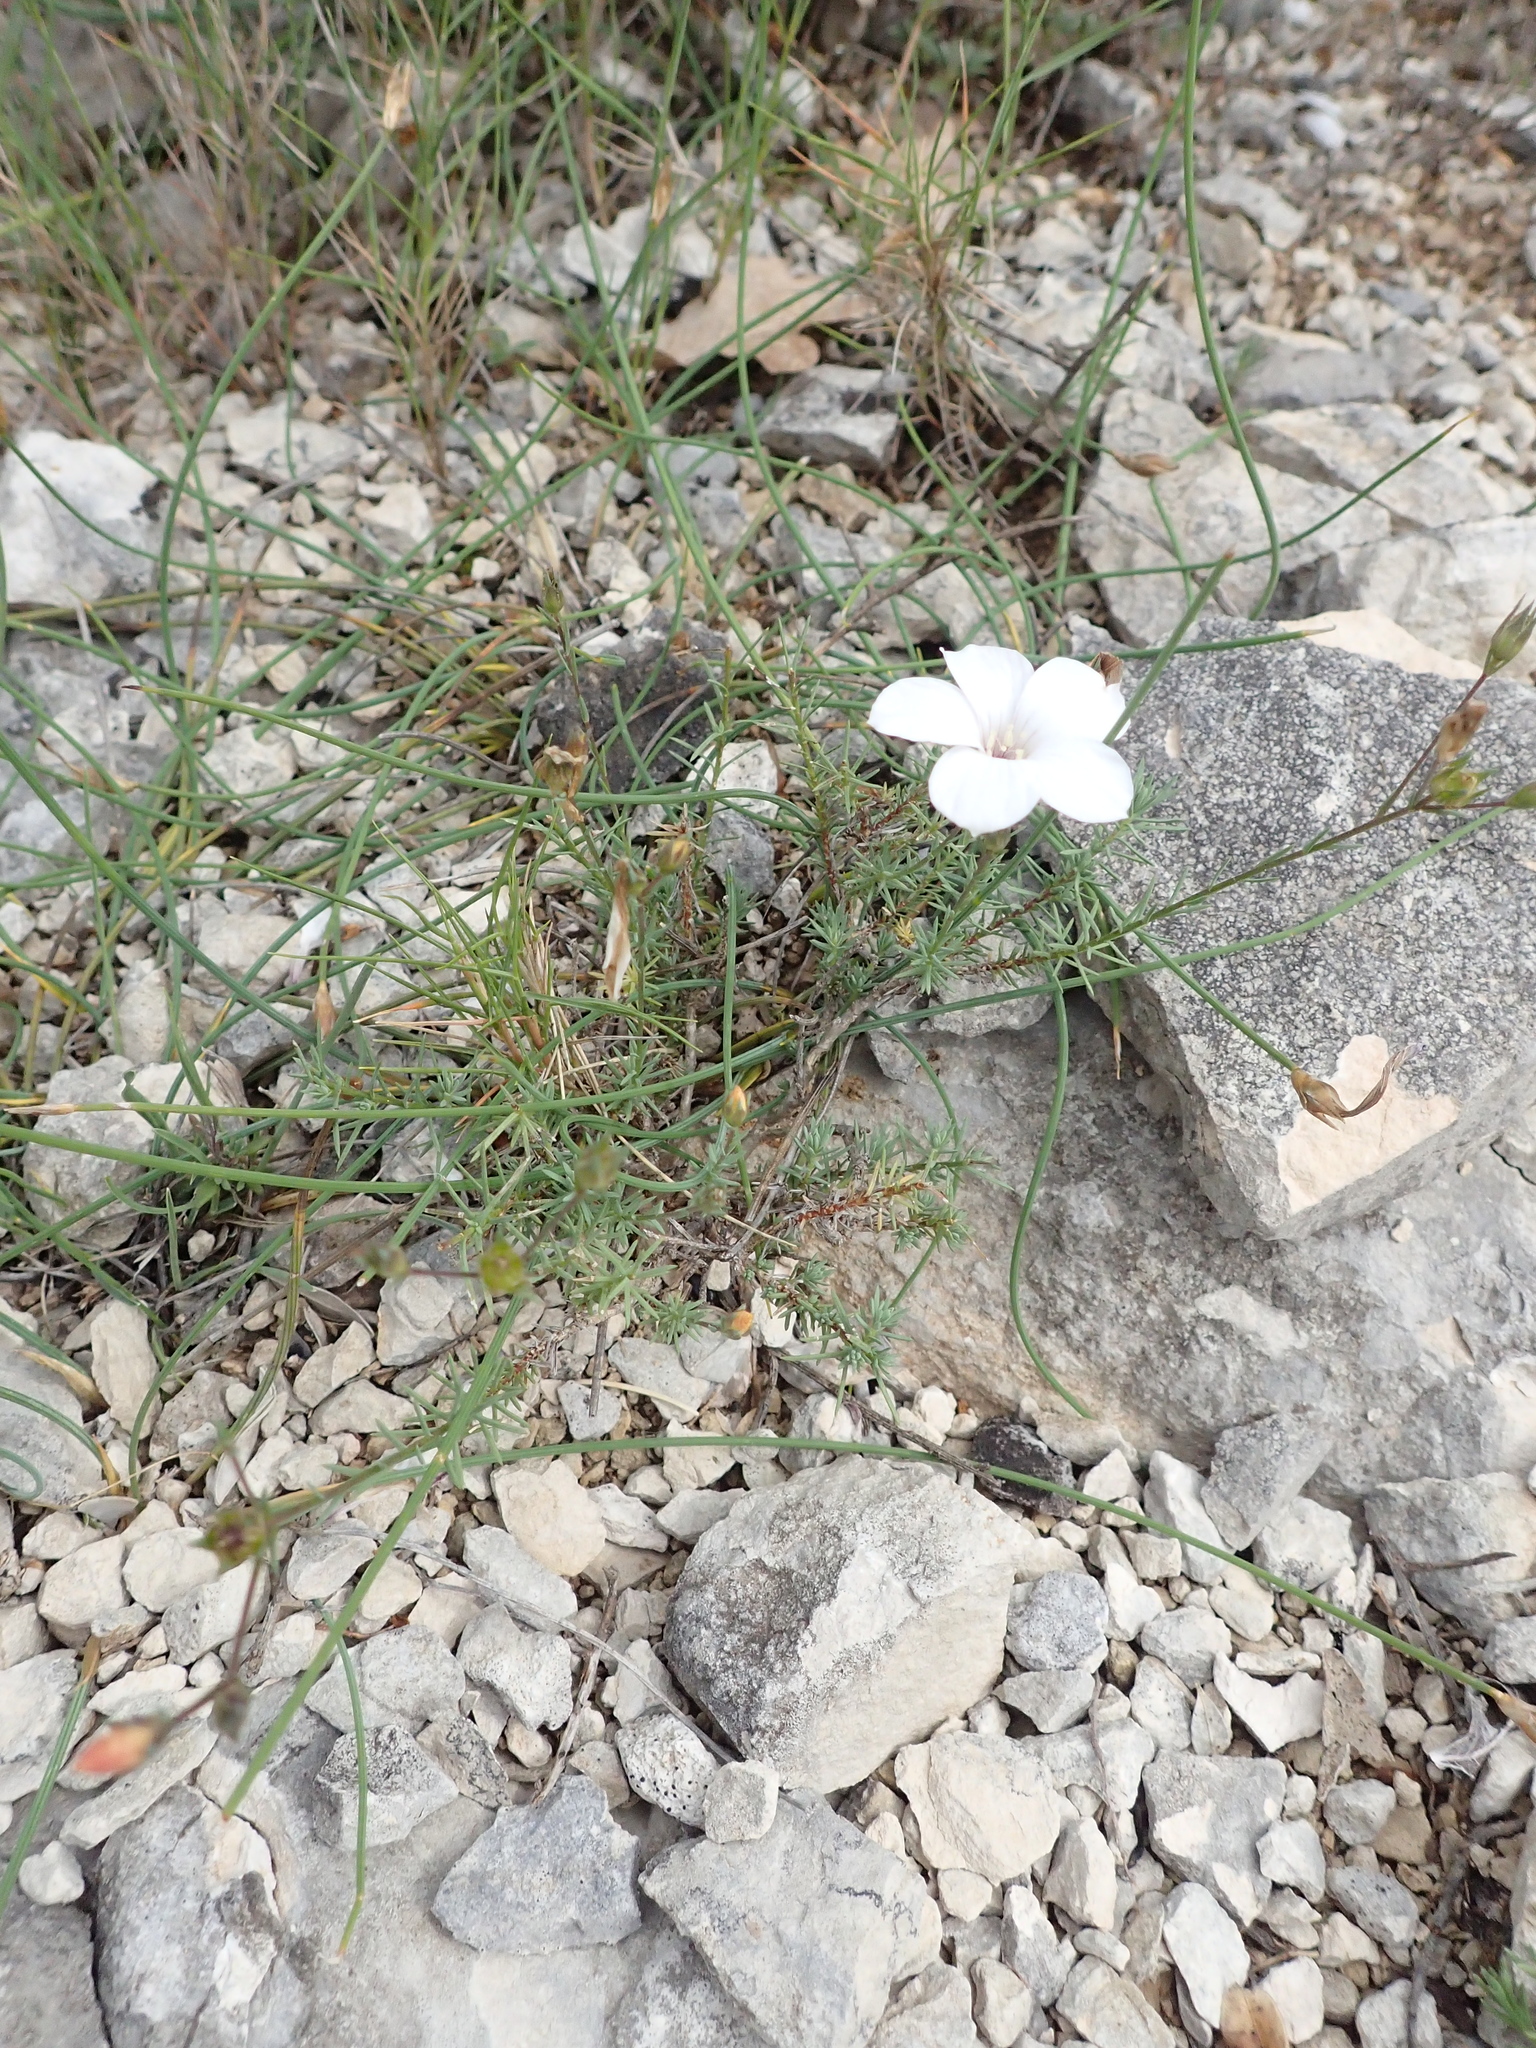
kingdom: Plantae
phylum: Tracheophyta
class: Magnoliopsida
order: Malpighiales
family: Linaceae
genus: Linum
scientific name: Linum suffruticosum
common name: White flax
